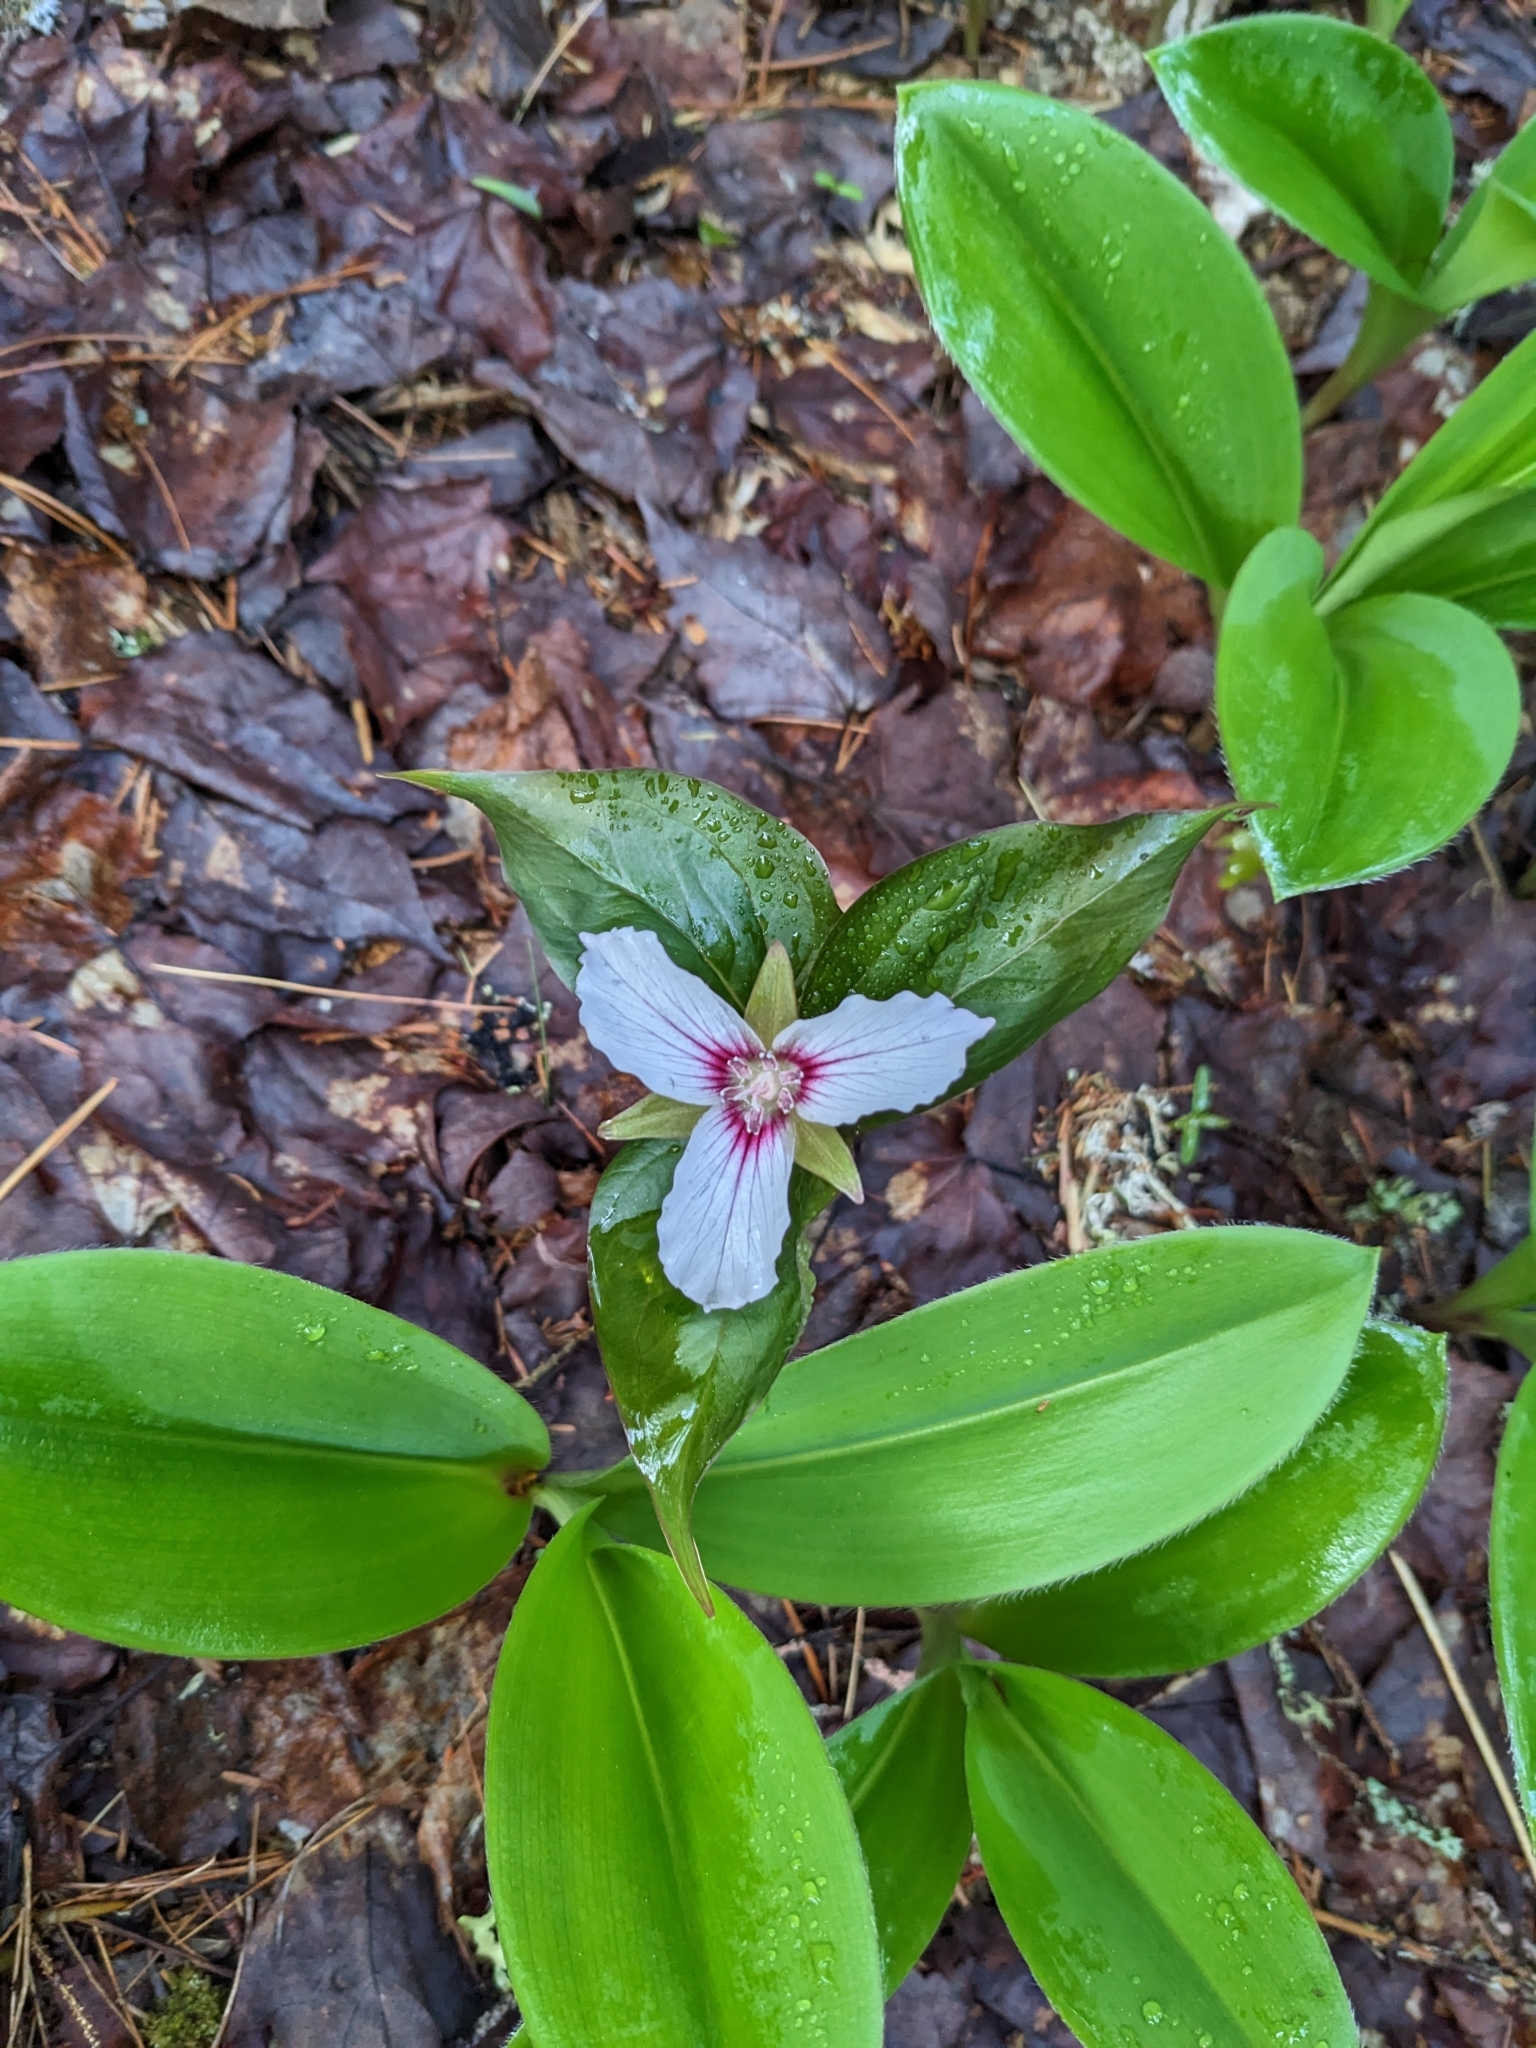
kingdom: Plantae
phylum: Tracheophyta
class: Liliopsida
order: Liliales
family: Melanthiaceae
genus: Trillium
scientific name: Trillium undulatum
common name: Paint trillium
